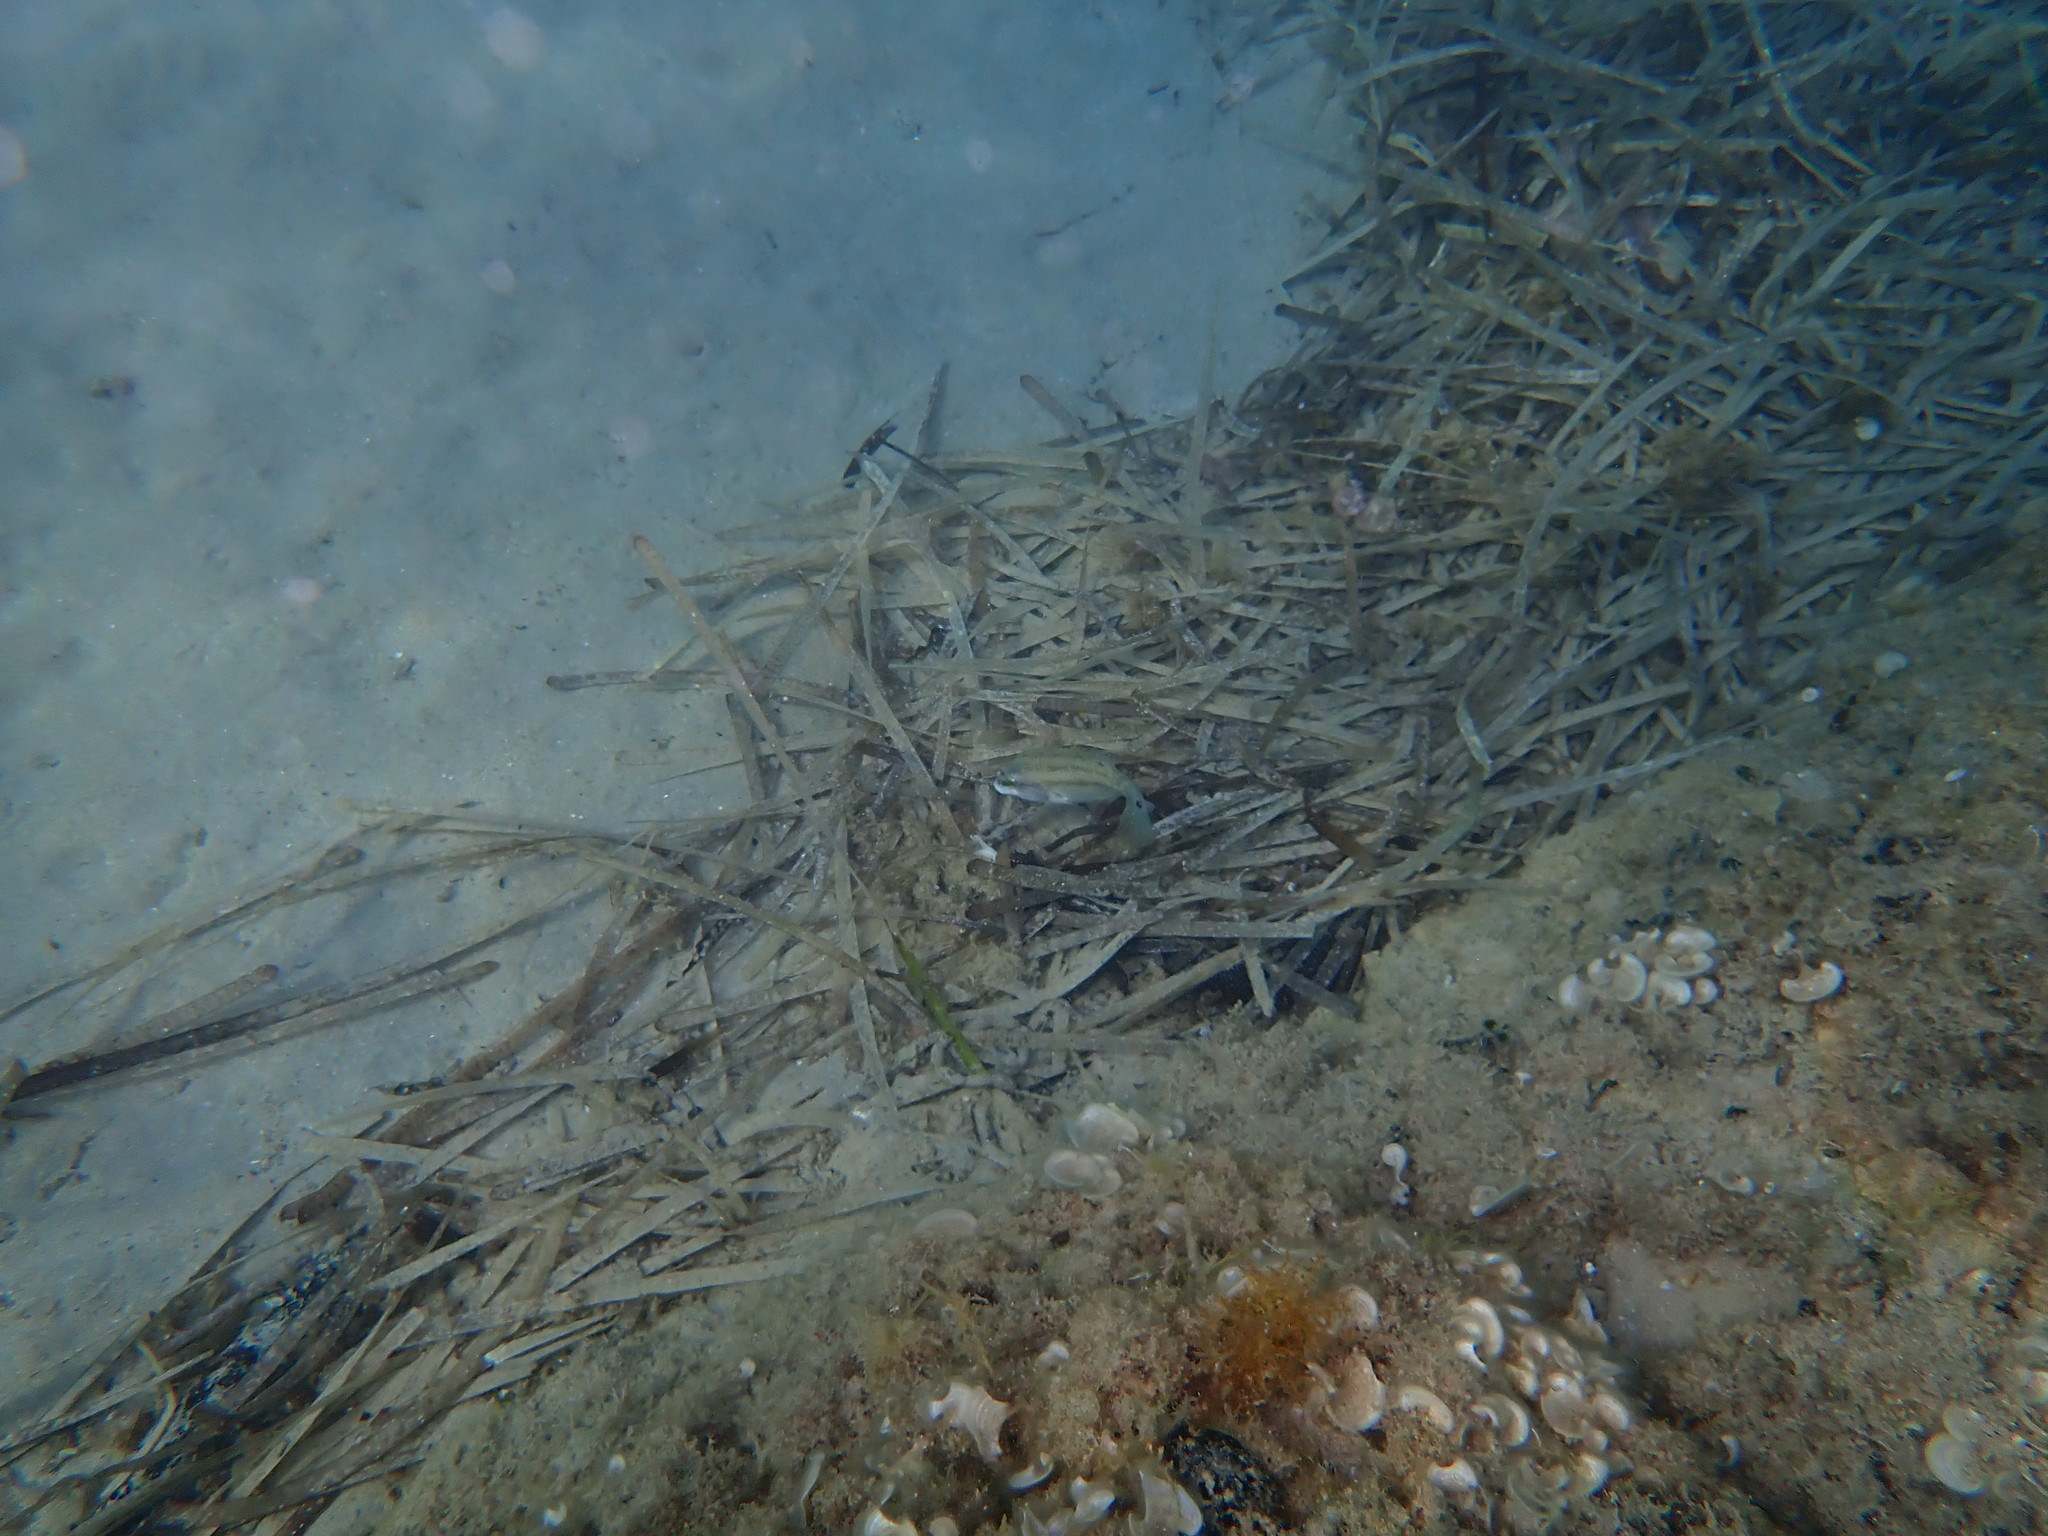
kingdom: Animalia
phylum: Chordata
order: Perciformes
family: Labridae
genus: Symphodus
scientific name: Symphodus tinca
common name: Peacock wrasse
